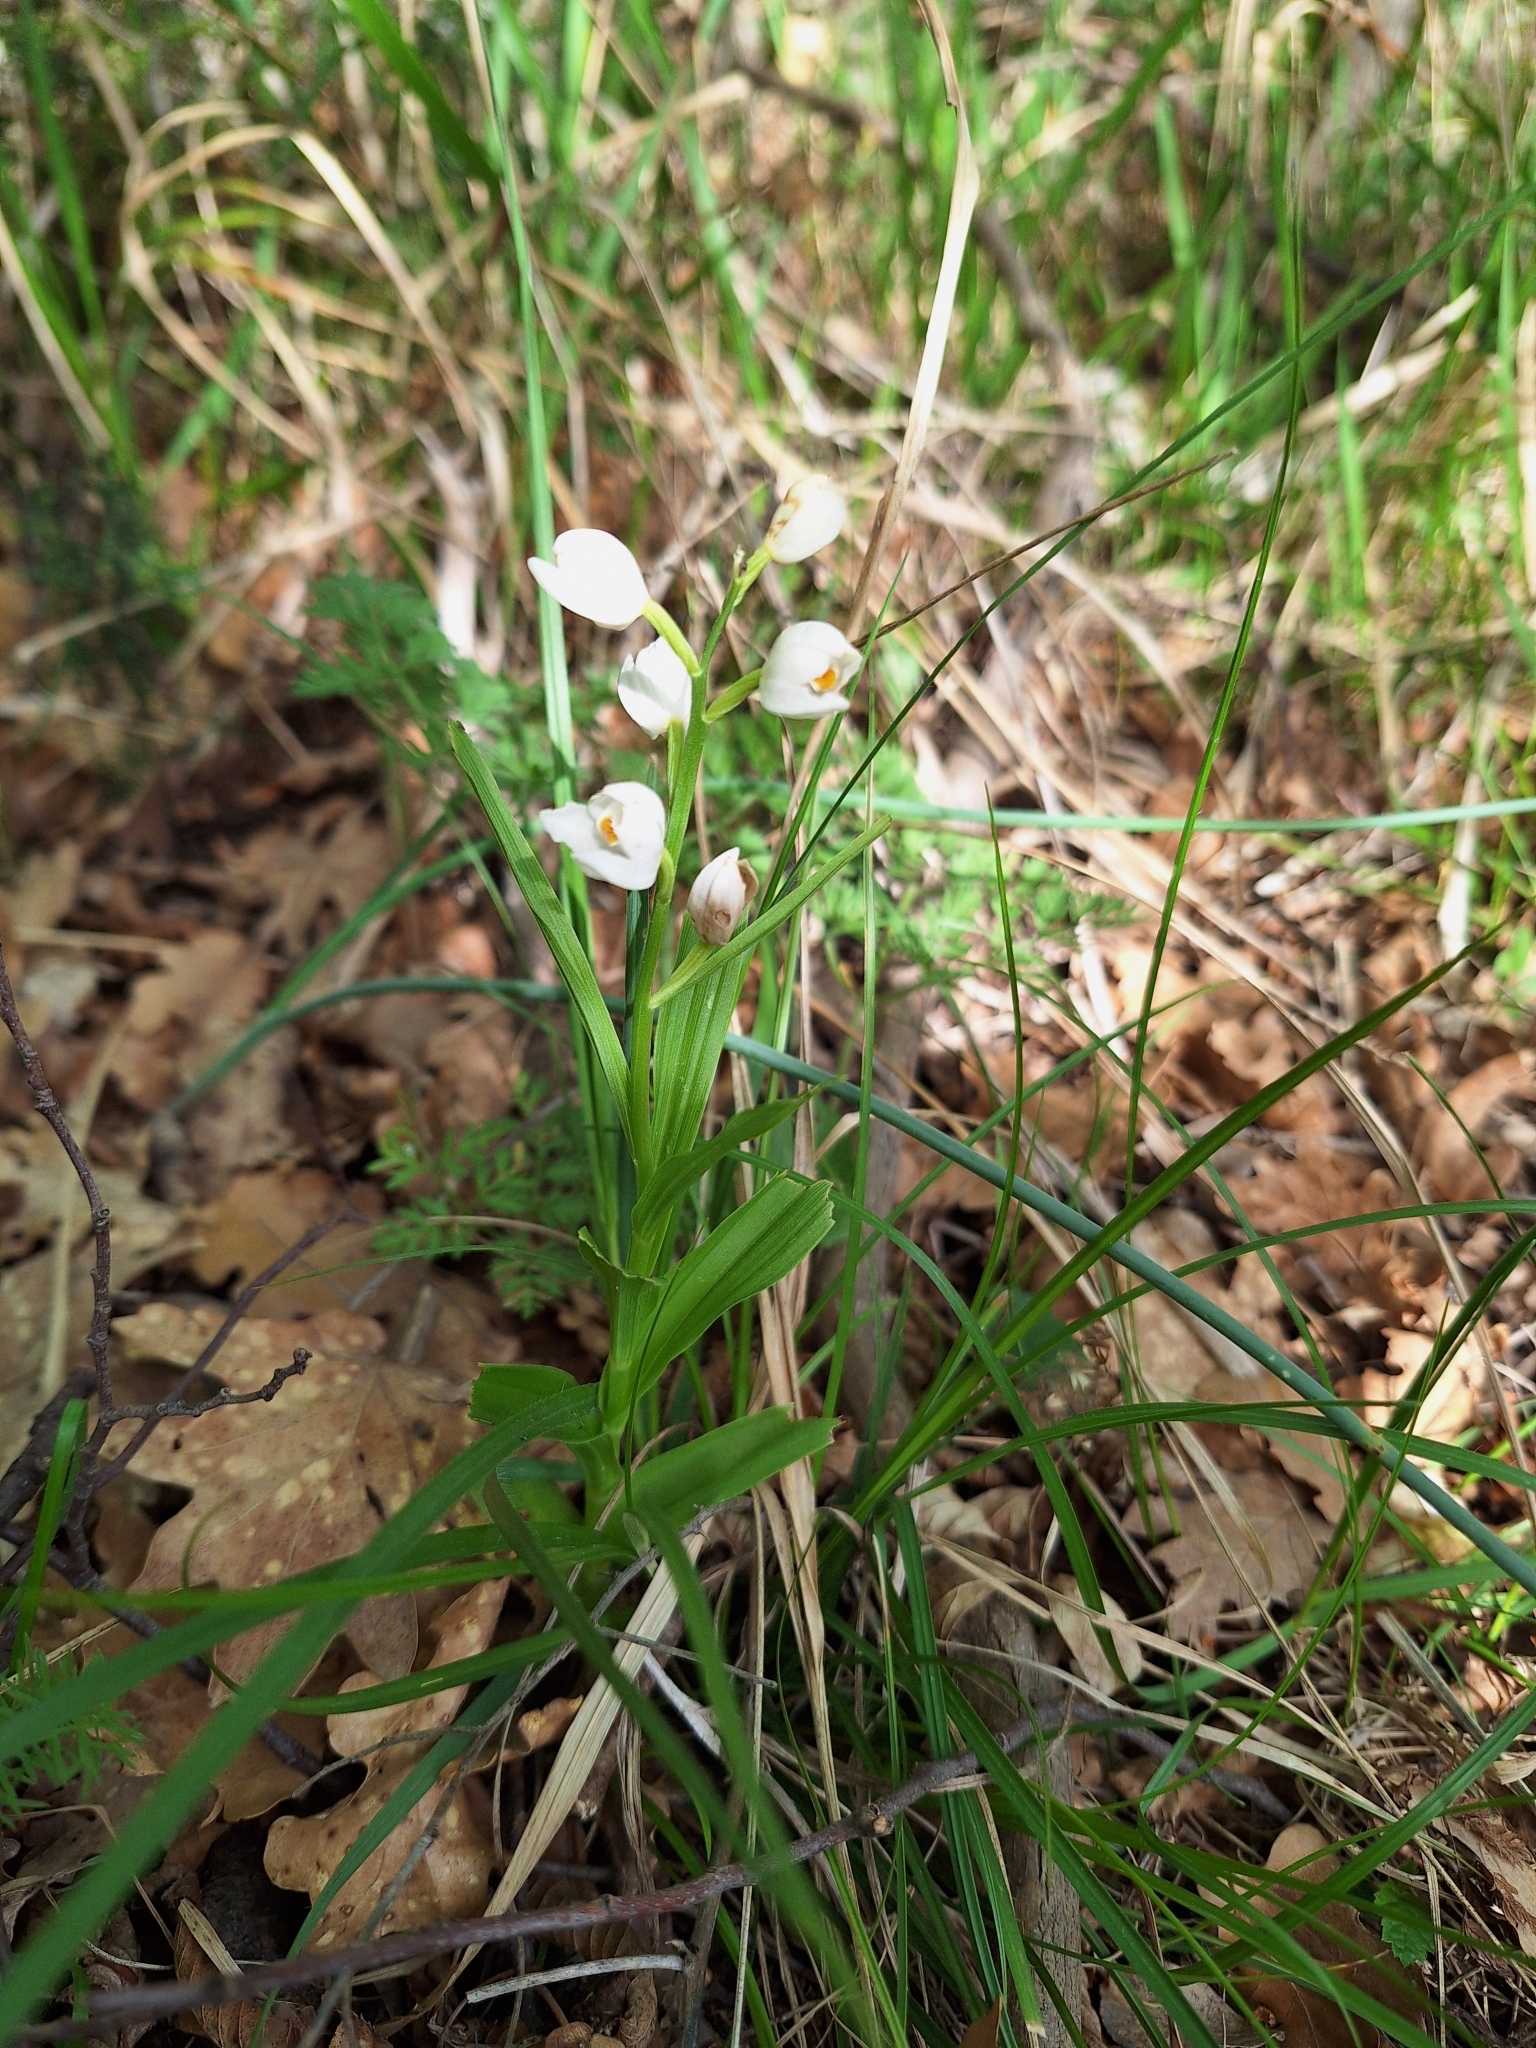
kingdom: Plantae
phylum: Tracheophyta
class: Liliopsida
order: Asparagales
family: Orchidaceae
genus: Cephalanthera
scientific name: Cephalanthera longifolia
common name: Narrow-leaved helleborine
